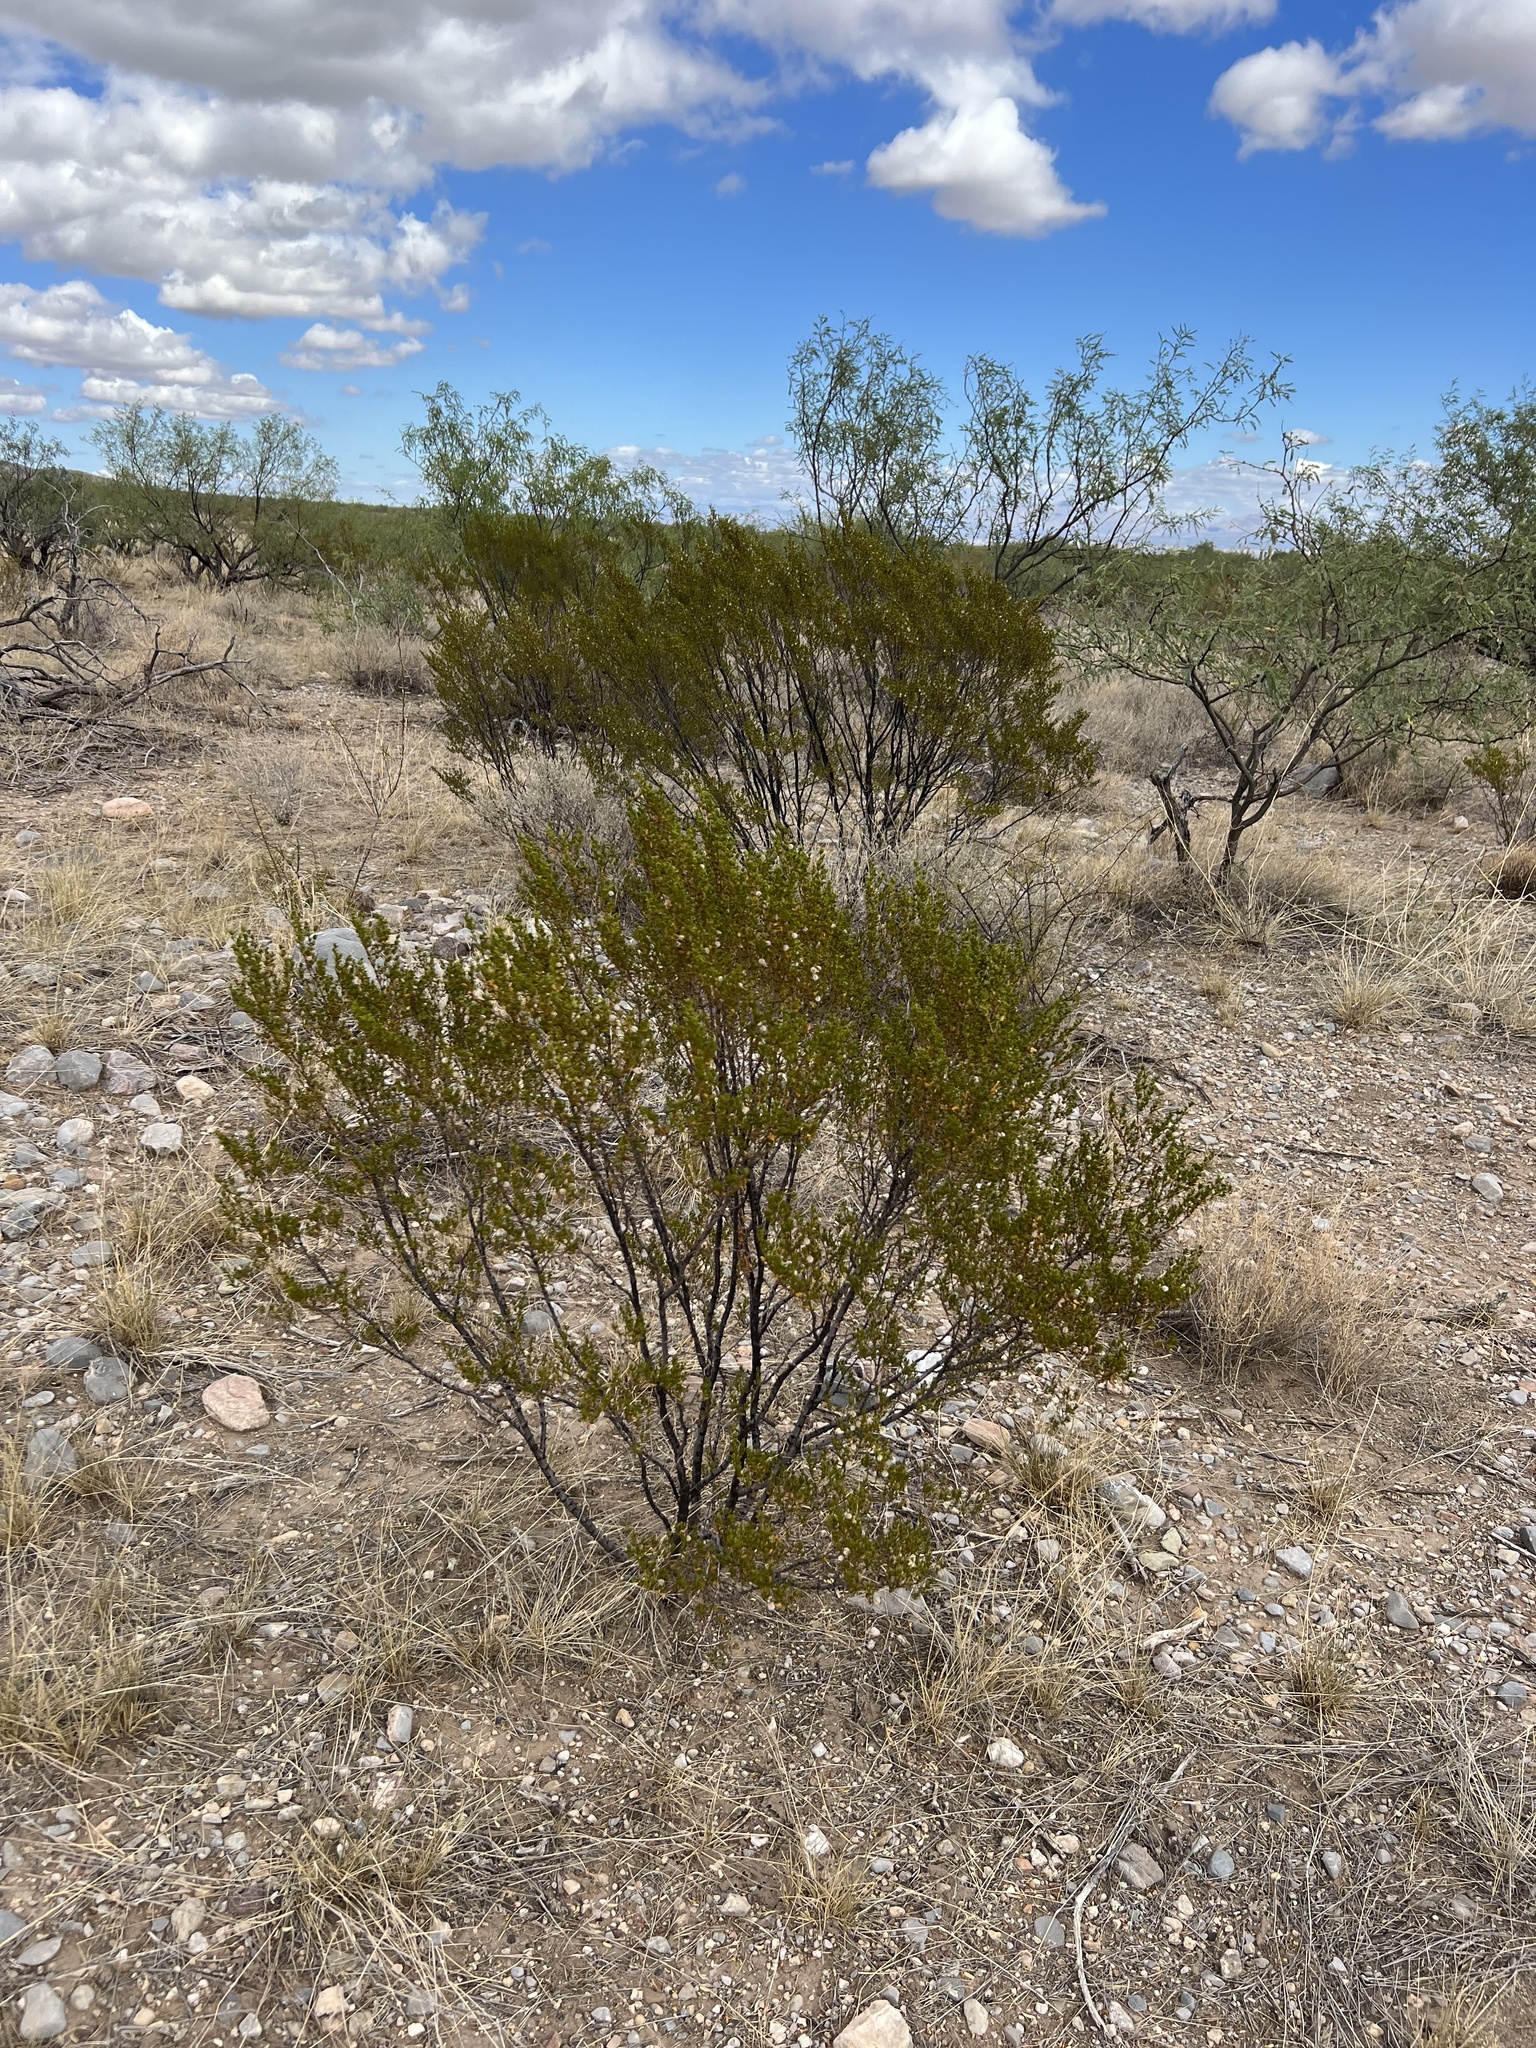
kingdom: Plantae
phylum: Tracheophyta
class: Magnoliopsida
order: Zygophyllales
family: Zygophyllaceae
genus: Larrea
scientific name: Larrea tridentata
